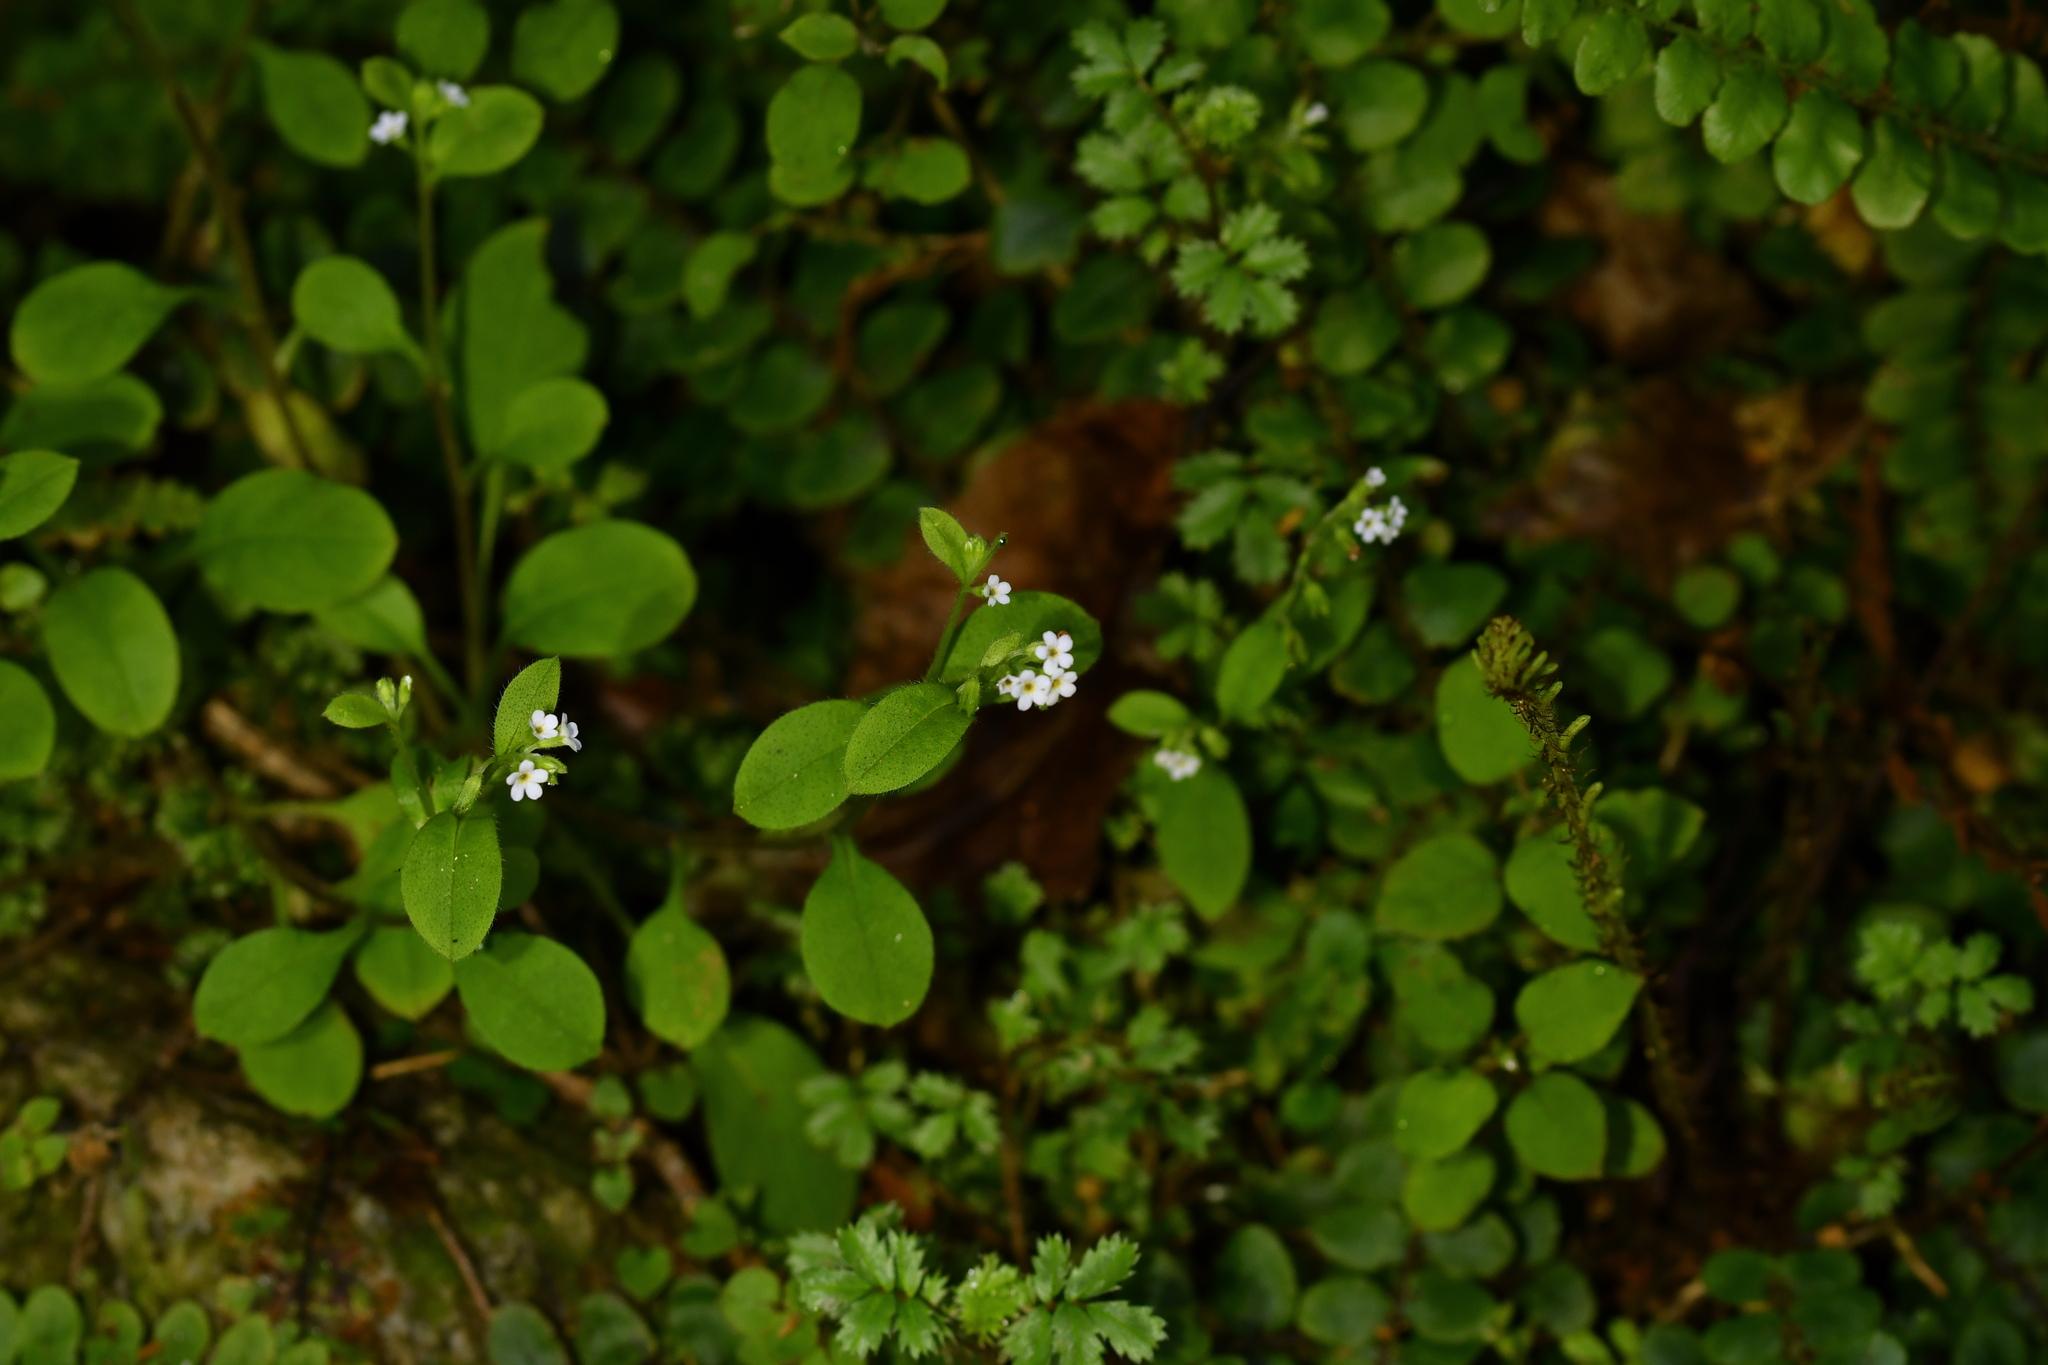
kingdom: Plantae
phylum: Tracheophyta
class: Magnoliopsida
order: Boraginales
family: Boraginaceae
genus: Myosotis
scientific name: Myosotis forsteri
